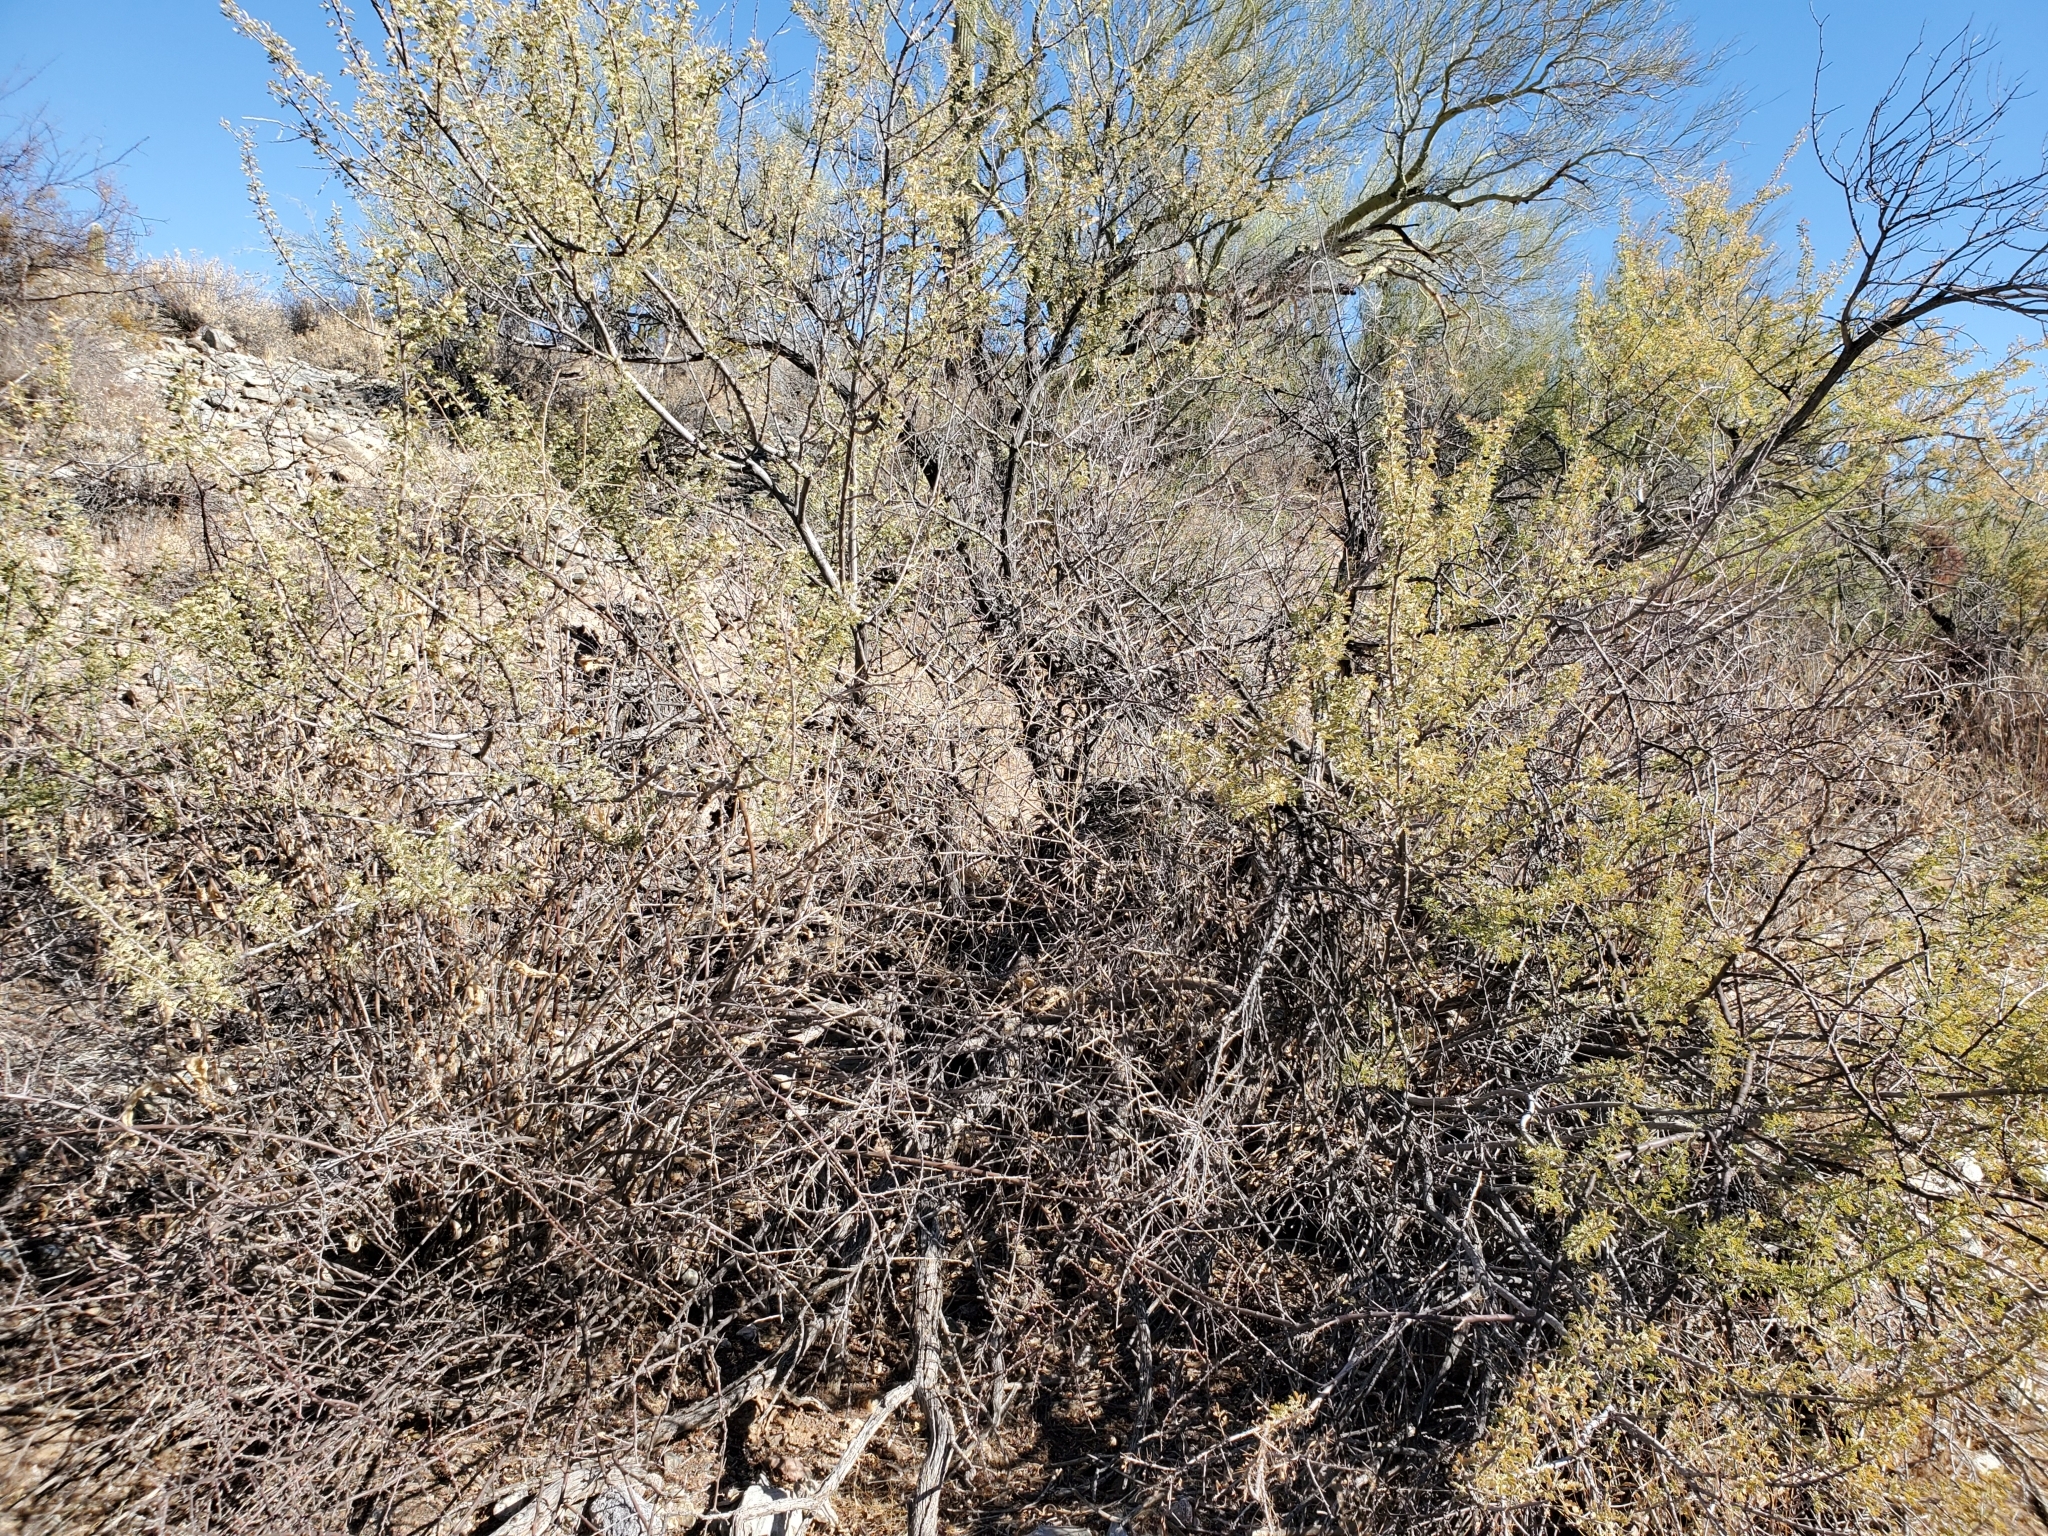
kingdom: Plantae
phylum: Tracheophyta
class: Magnoliopsida
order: Fabales
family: Fabaceae
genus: Senegalia
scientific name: Senegalia greggii
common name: Texas-mimosa
